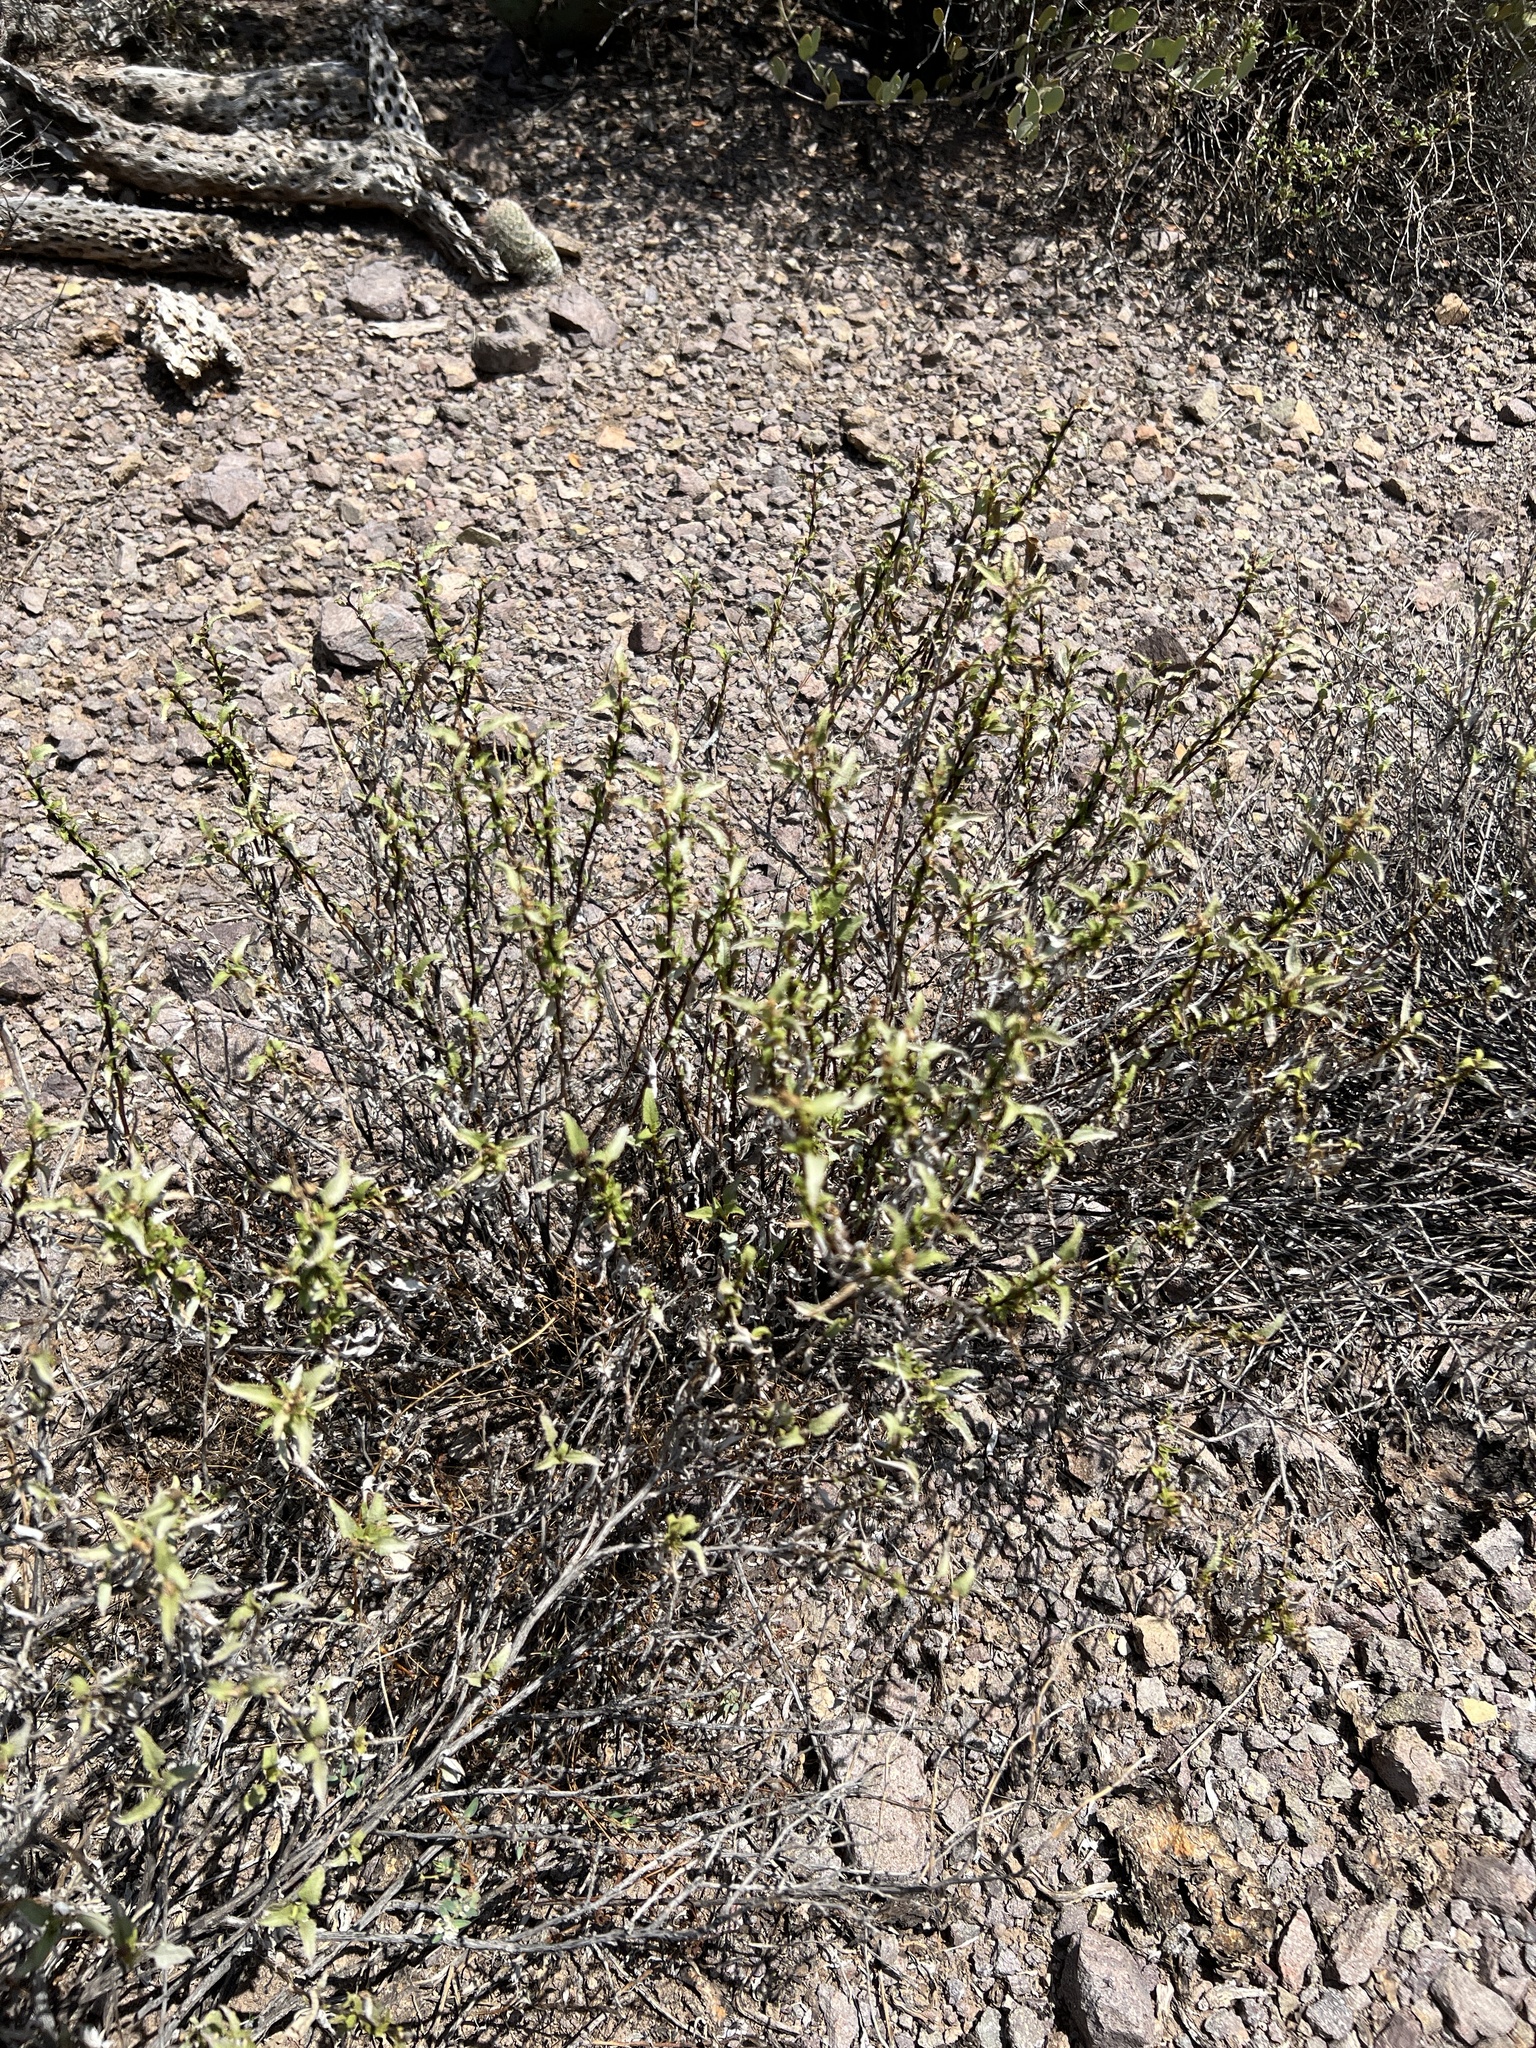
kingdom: Plantae
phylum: Tracheophyta
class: Magnoliopsida
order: Asterales
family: Asteraceae
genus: Ambrosia
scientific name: Ambrosia deltoidea
